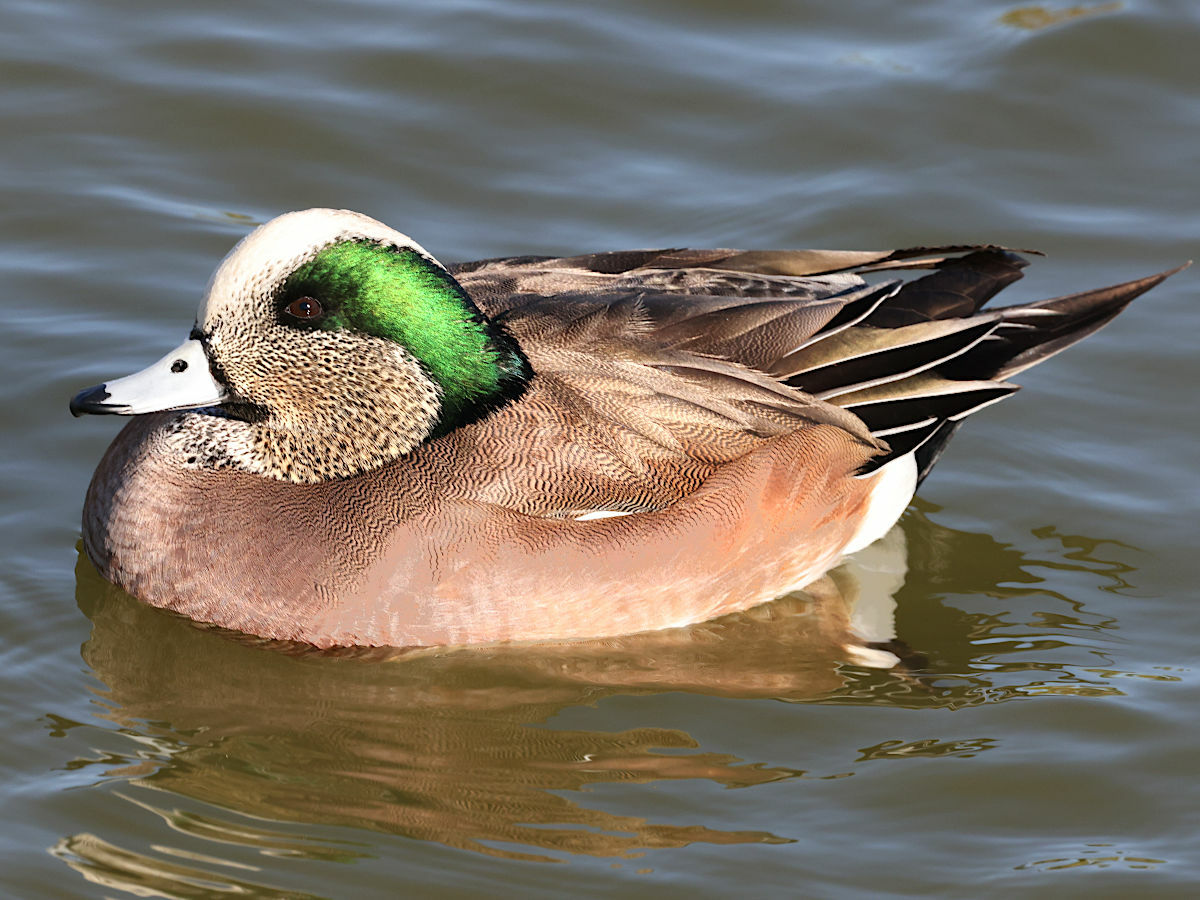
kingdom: Animalia
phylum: Chordata
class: Aves
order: Anseriformes
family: Anatidae
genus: Mareca
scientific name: Mareca americana
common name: American wigeon
